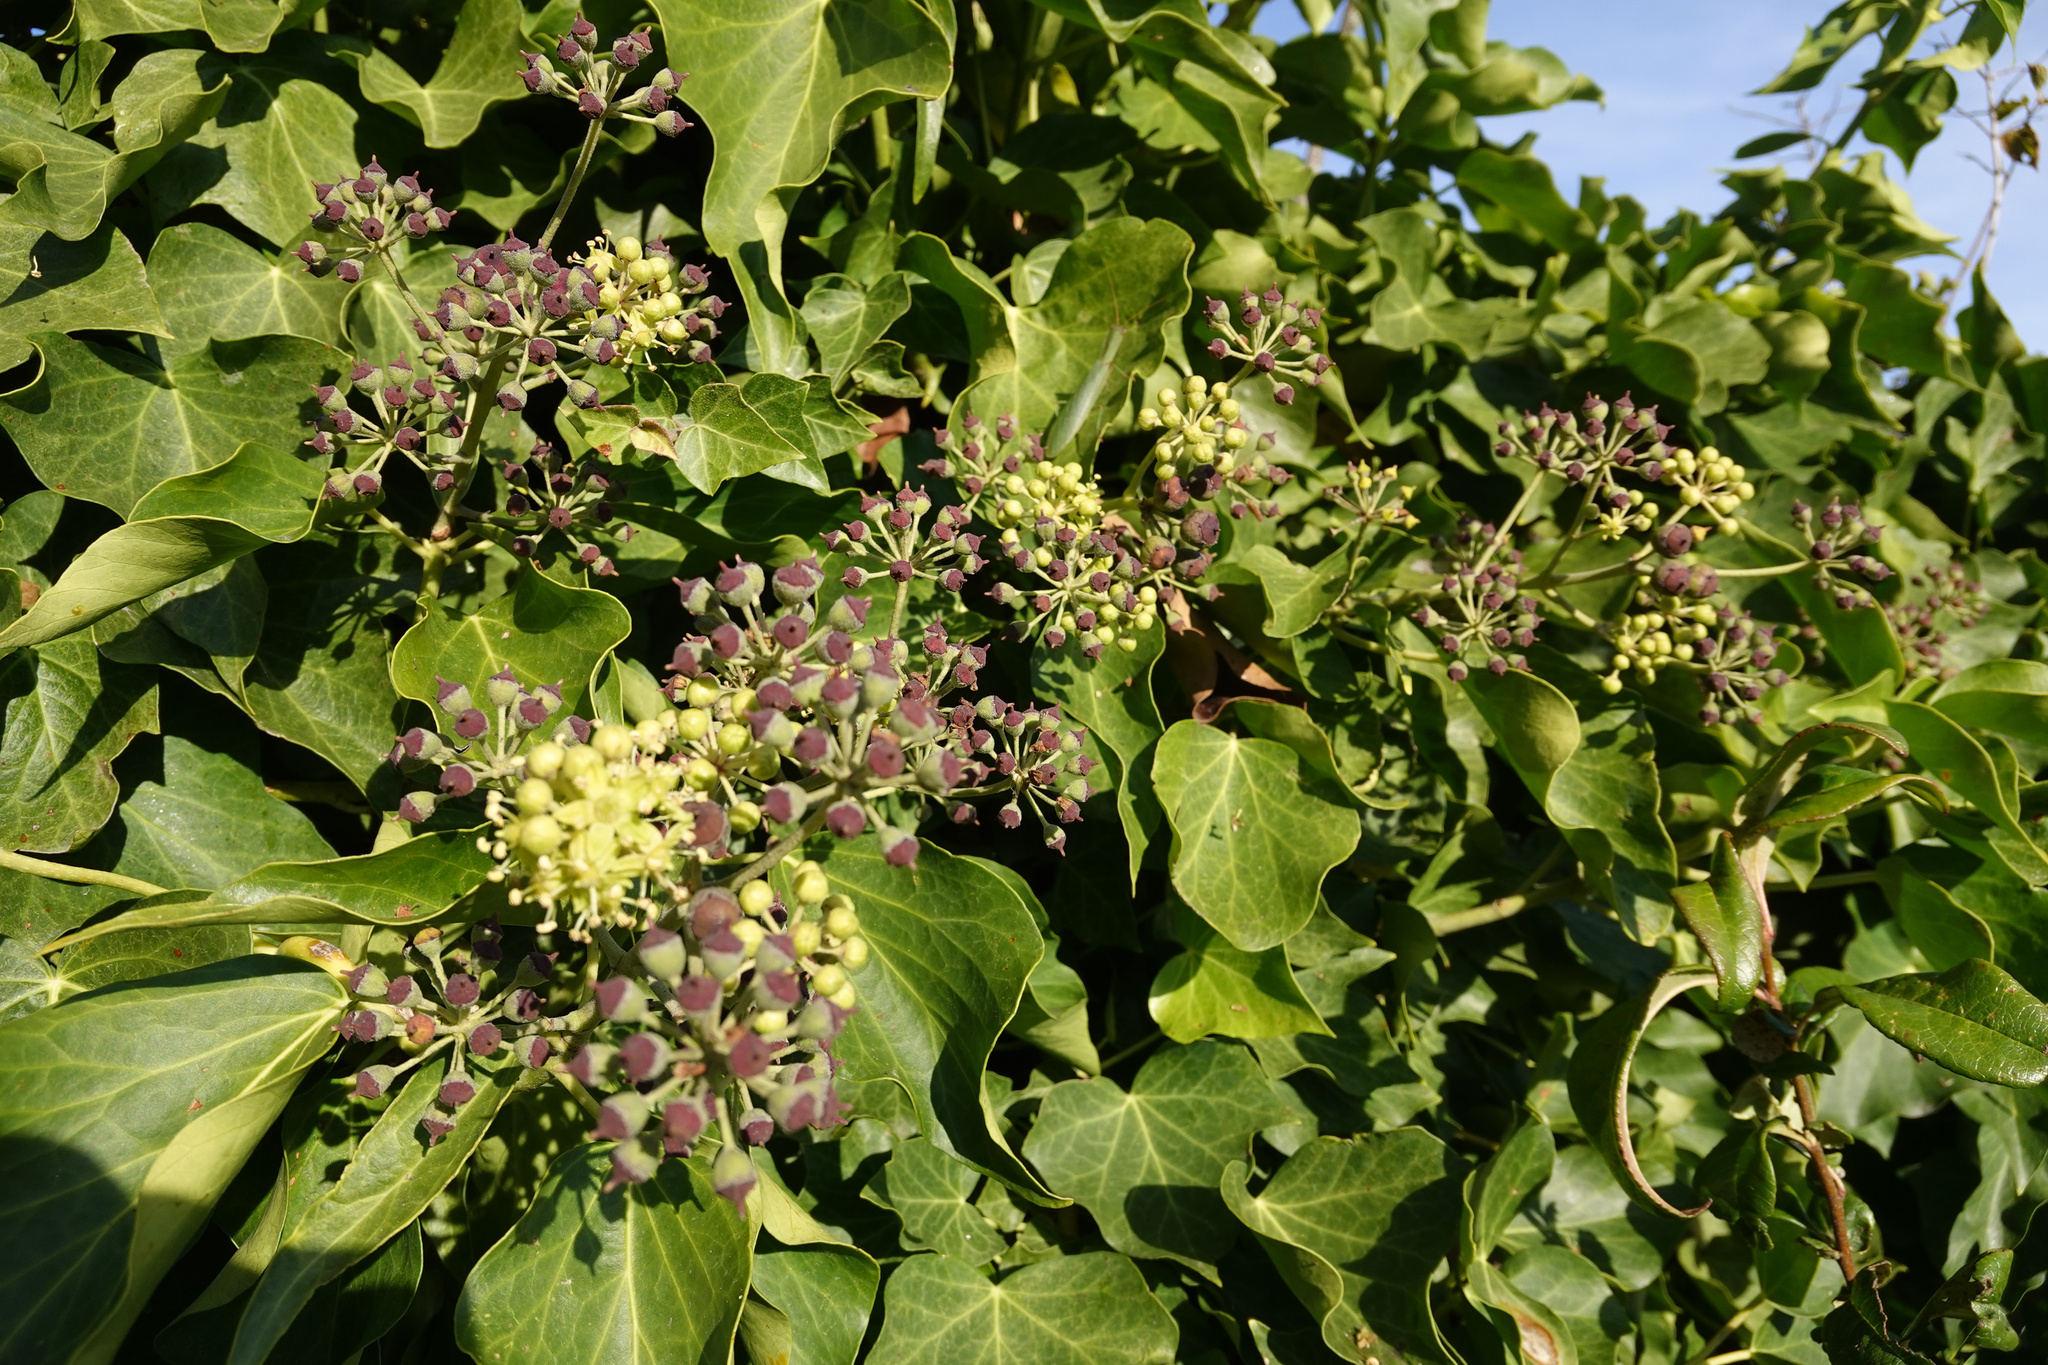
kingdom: Plantae
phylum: Tracheophyta
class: Magnoliopsida
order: Apiales
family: Araliaceae
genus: Hedera
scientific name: Hedera helix
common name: Ivy
